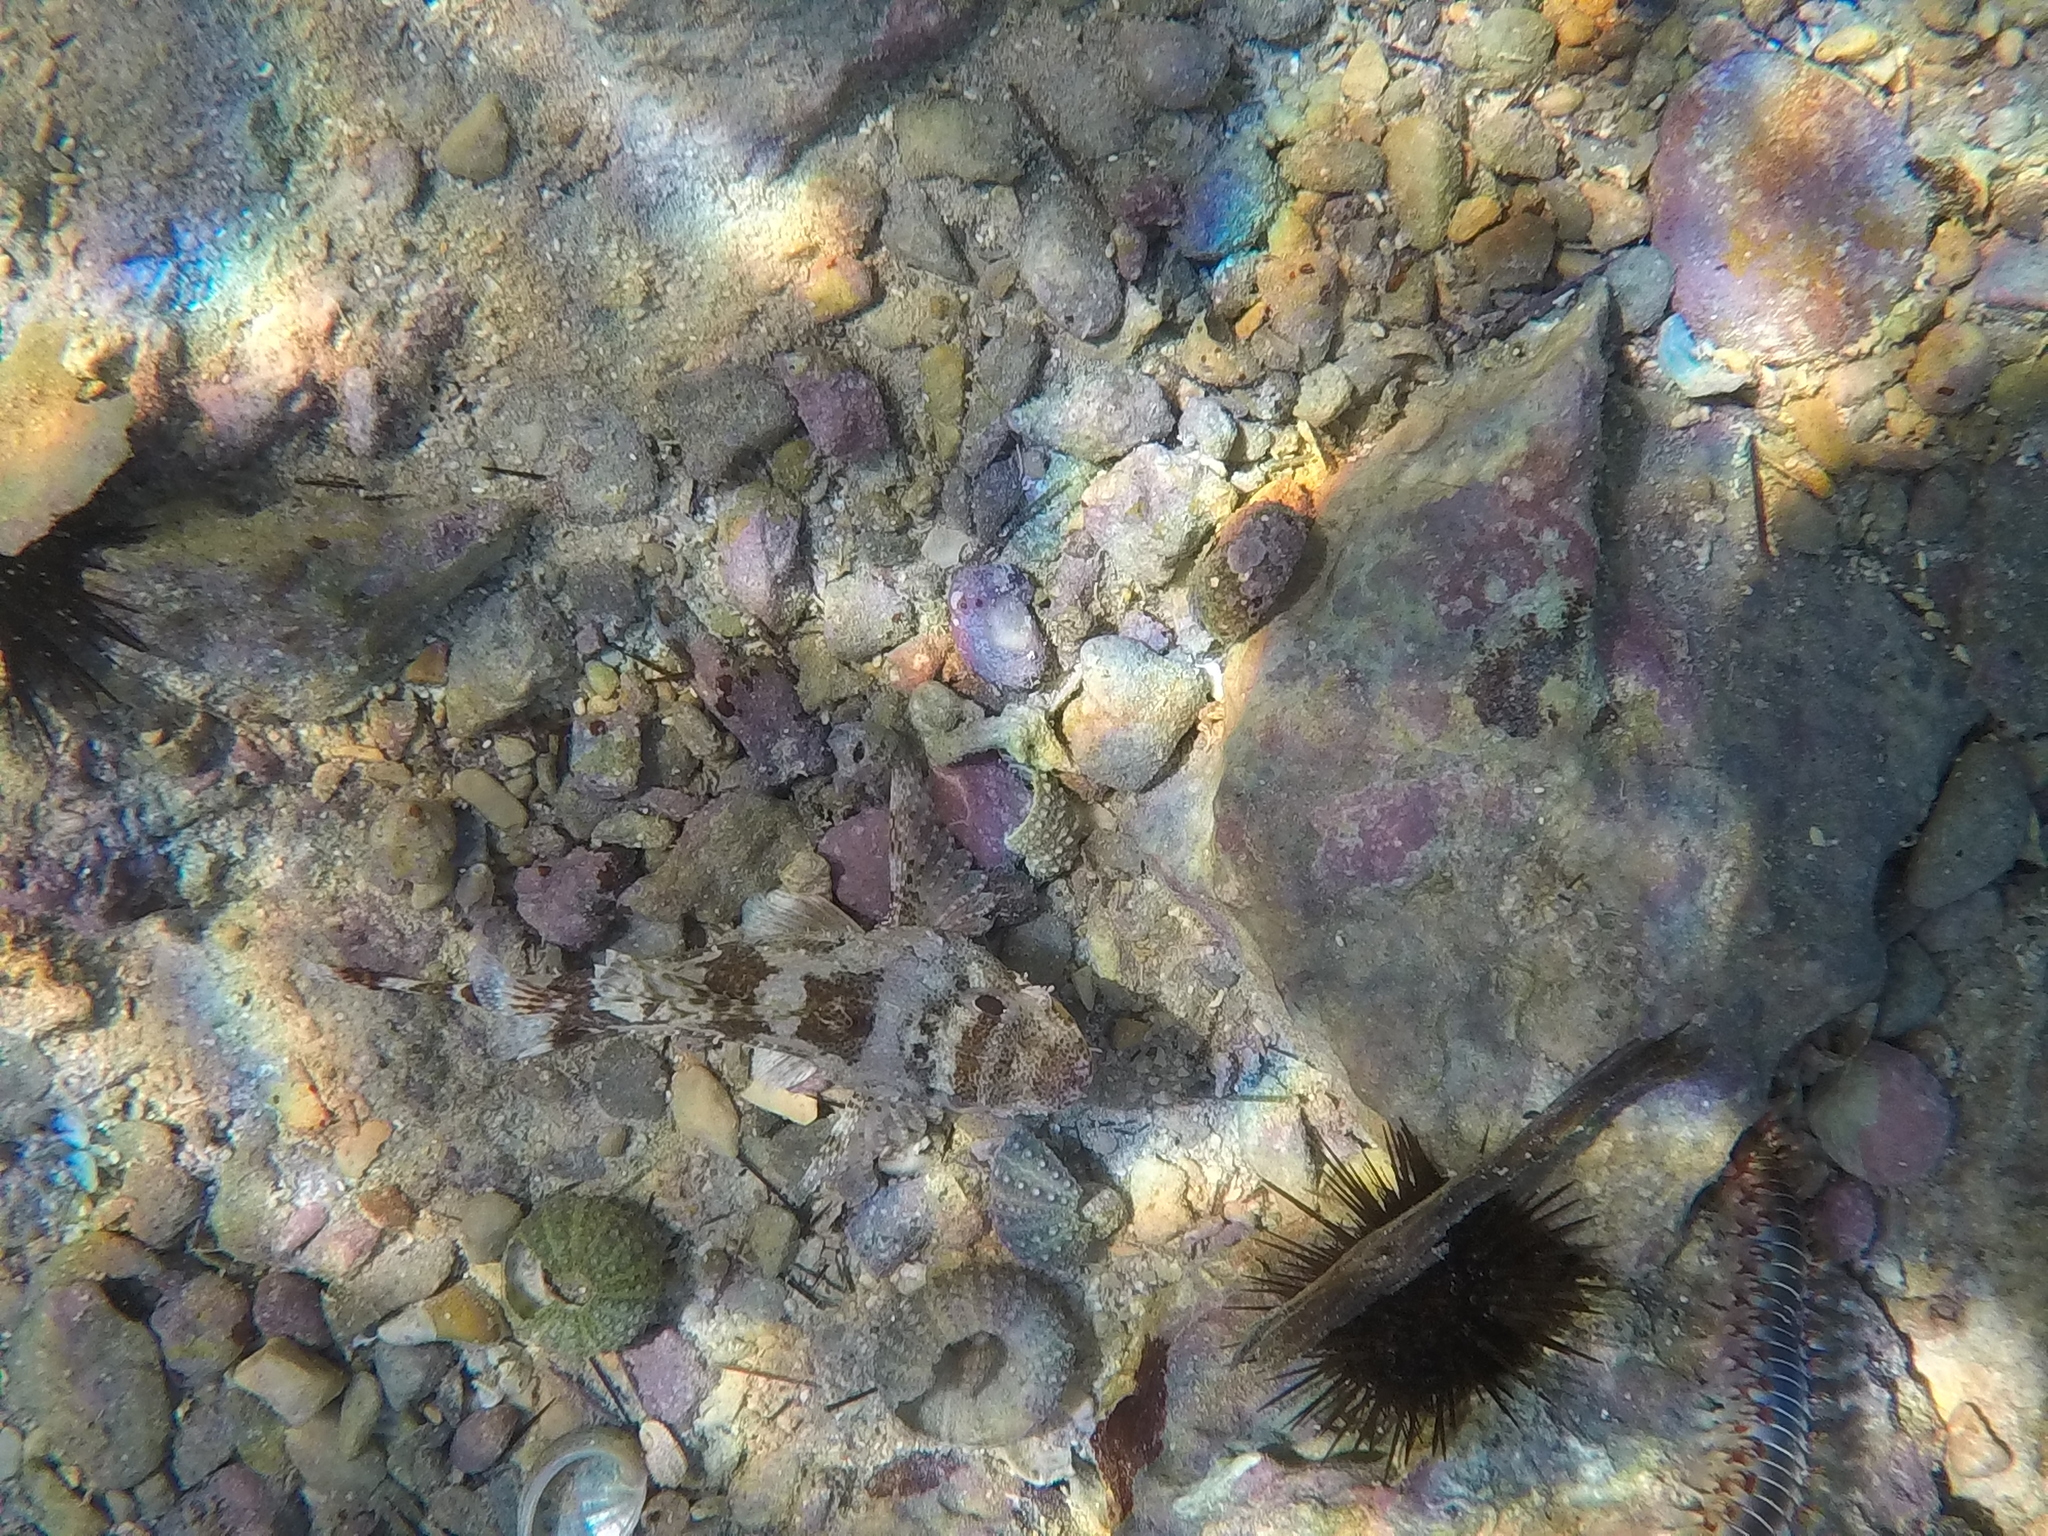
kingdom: Animalia
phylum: Chordata
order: Scorpaeniformes
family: Scorpaenidae
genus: Scorpaena
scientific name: Scorpaena maderensis
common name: Madeira rockfish
